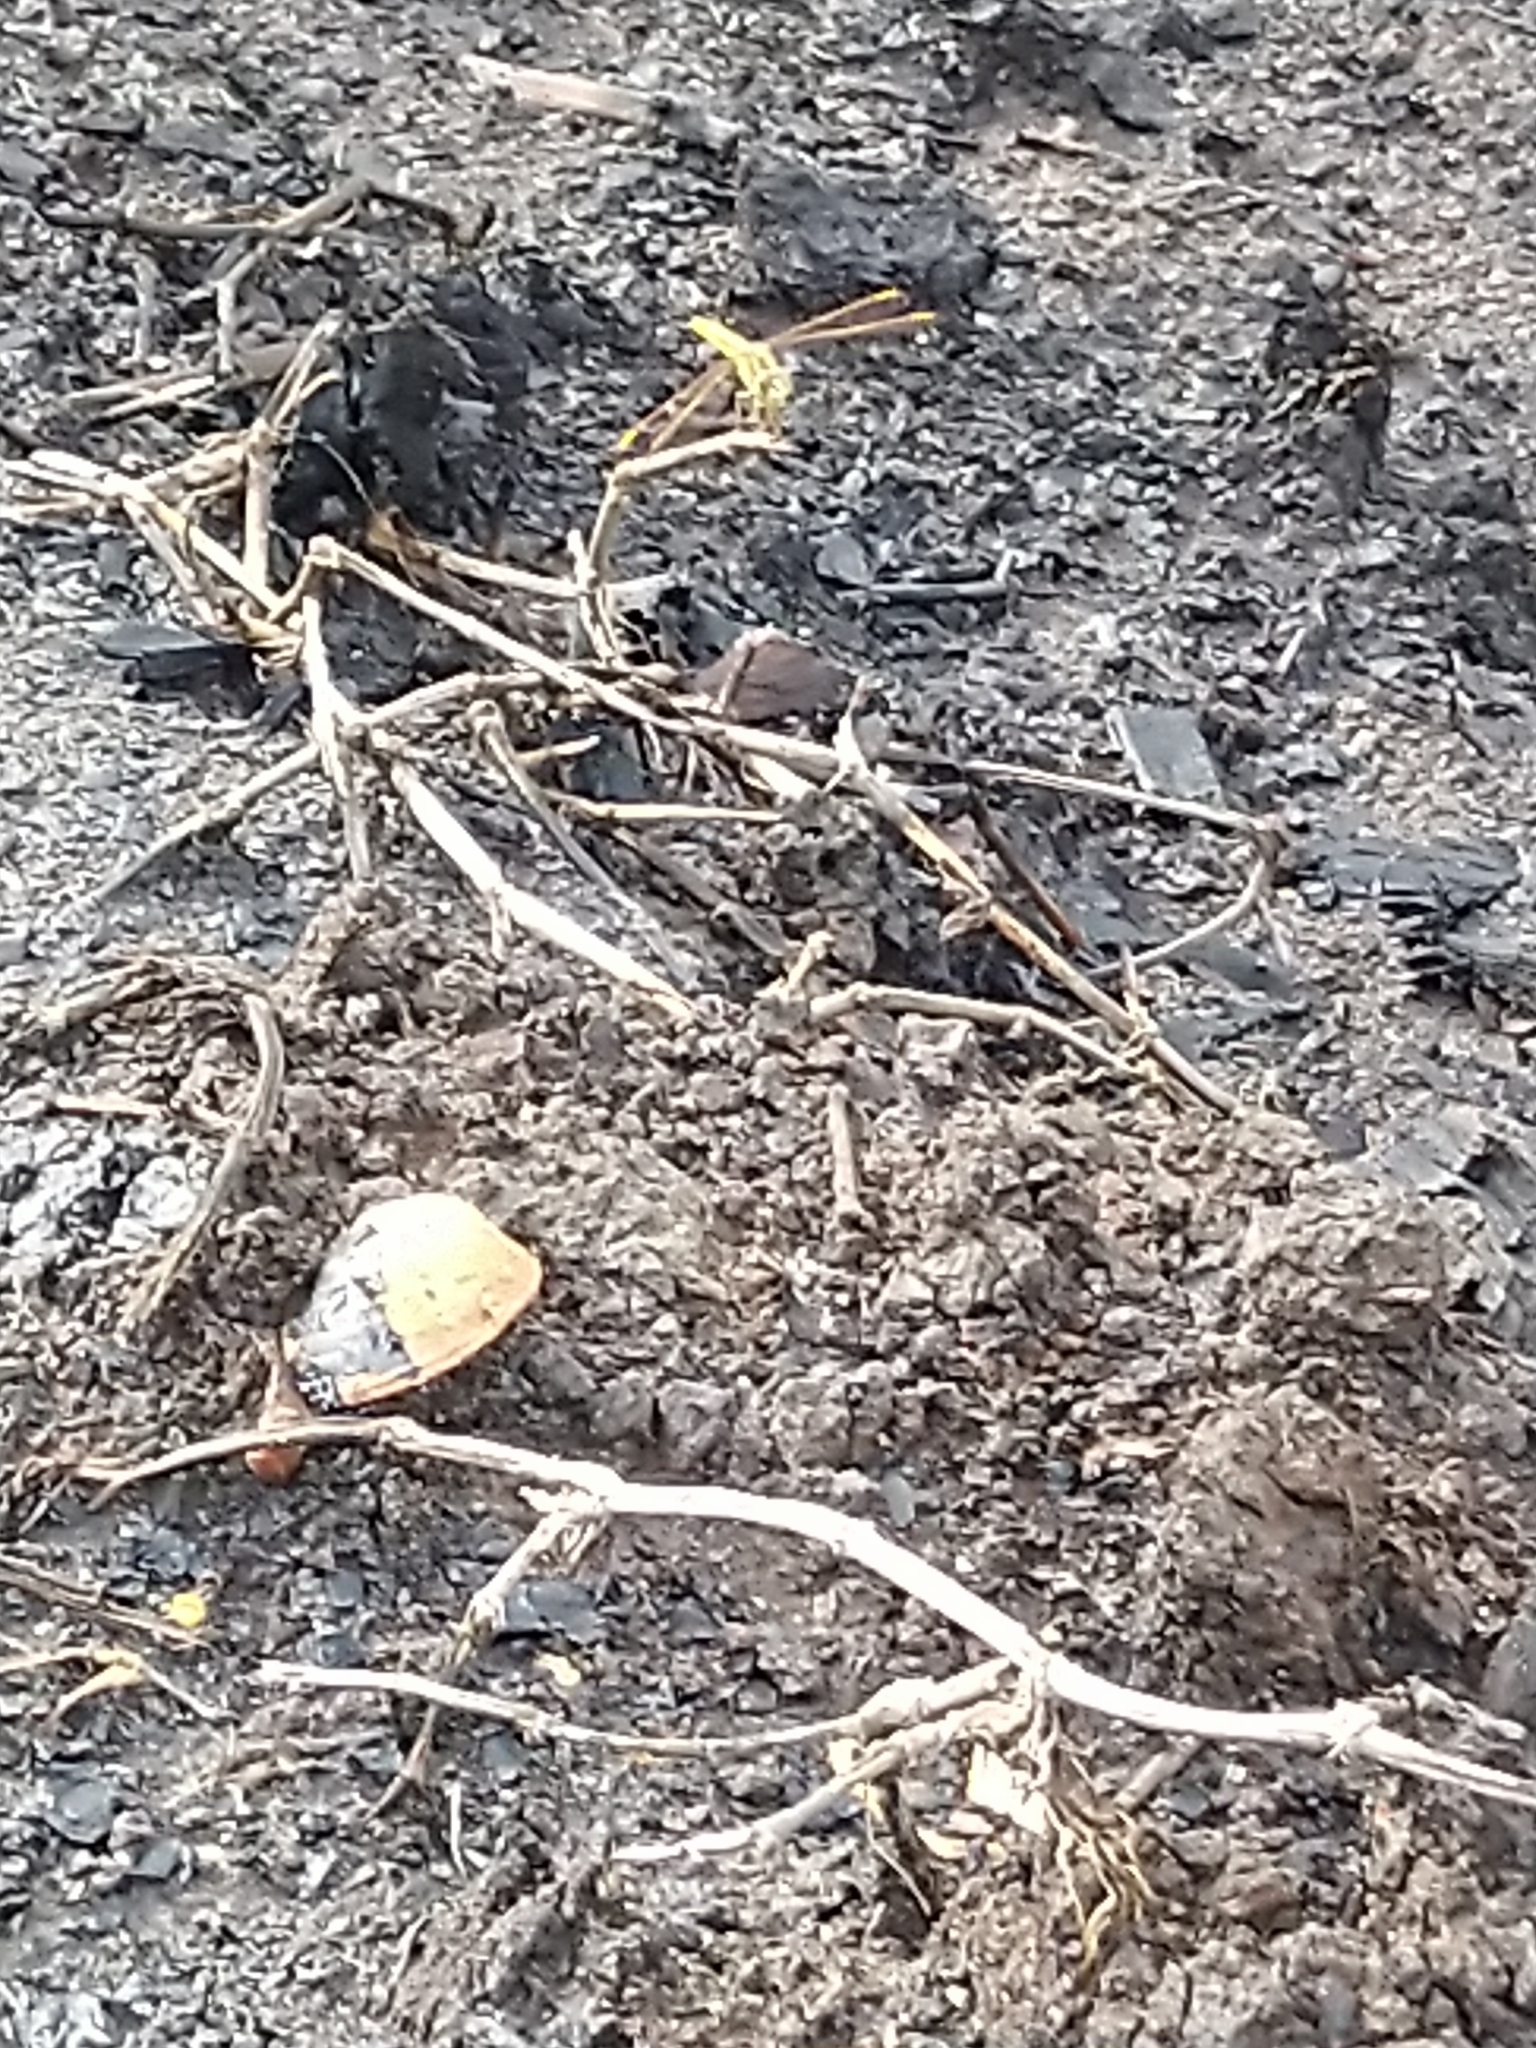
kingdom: Animalia
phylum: Arthropoda
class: Insecta
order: Odonata
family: Libellulidae
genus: Brachythemis
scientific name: Brachythemis contaminata
